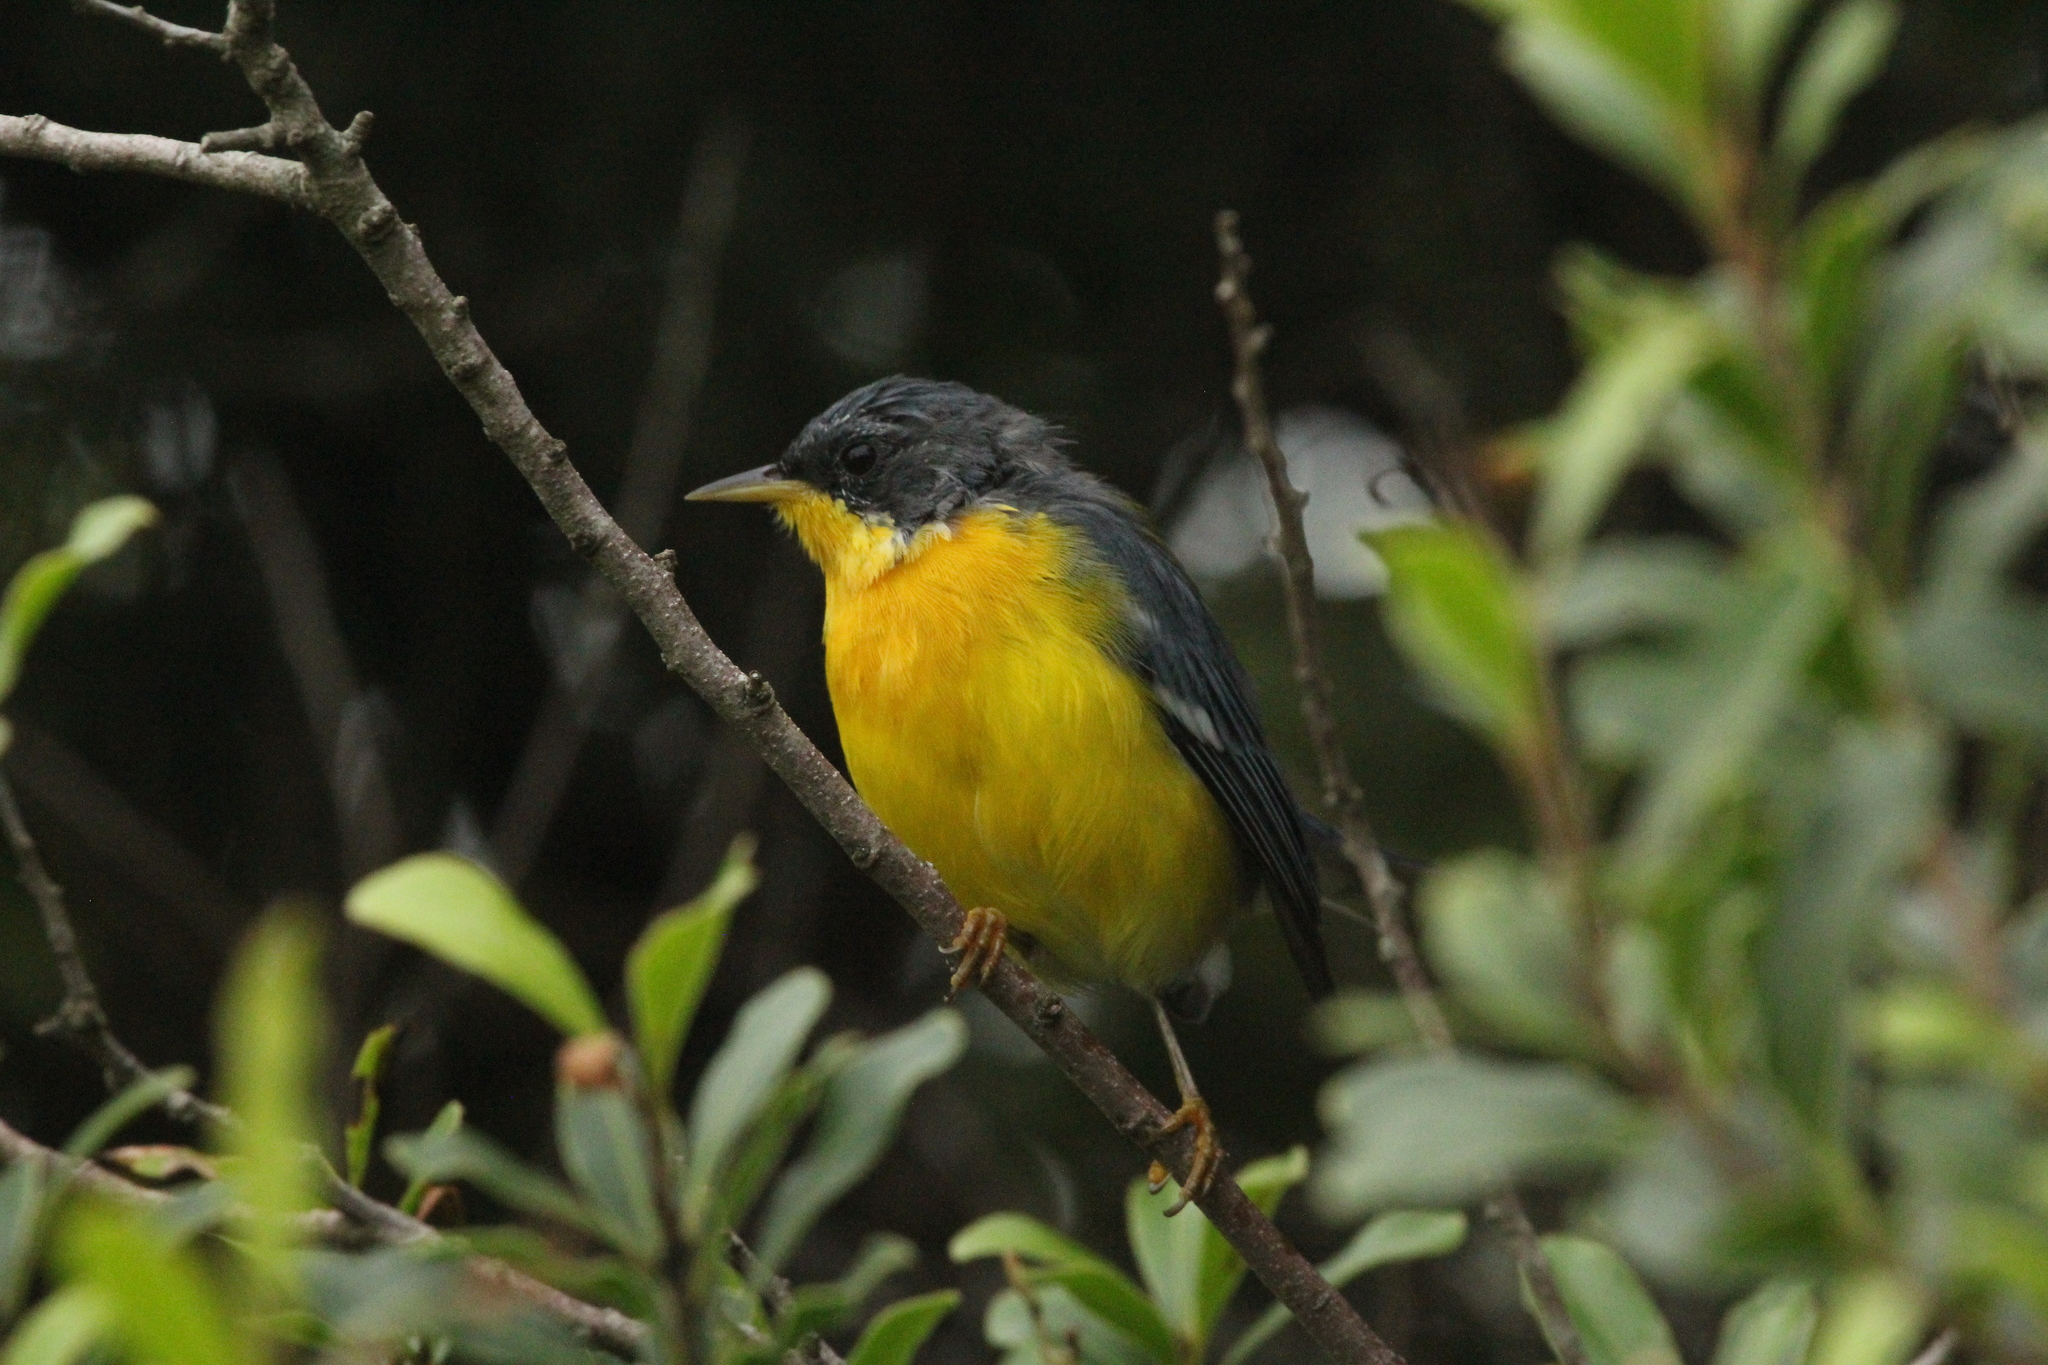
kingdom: Animalia
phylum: Chordata
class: Aves
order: Passeriformes
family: Parulidae
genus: Setophaga
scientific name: Setophaga pitiayumi
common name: Tropical parula
